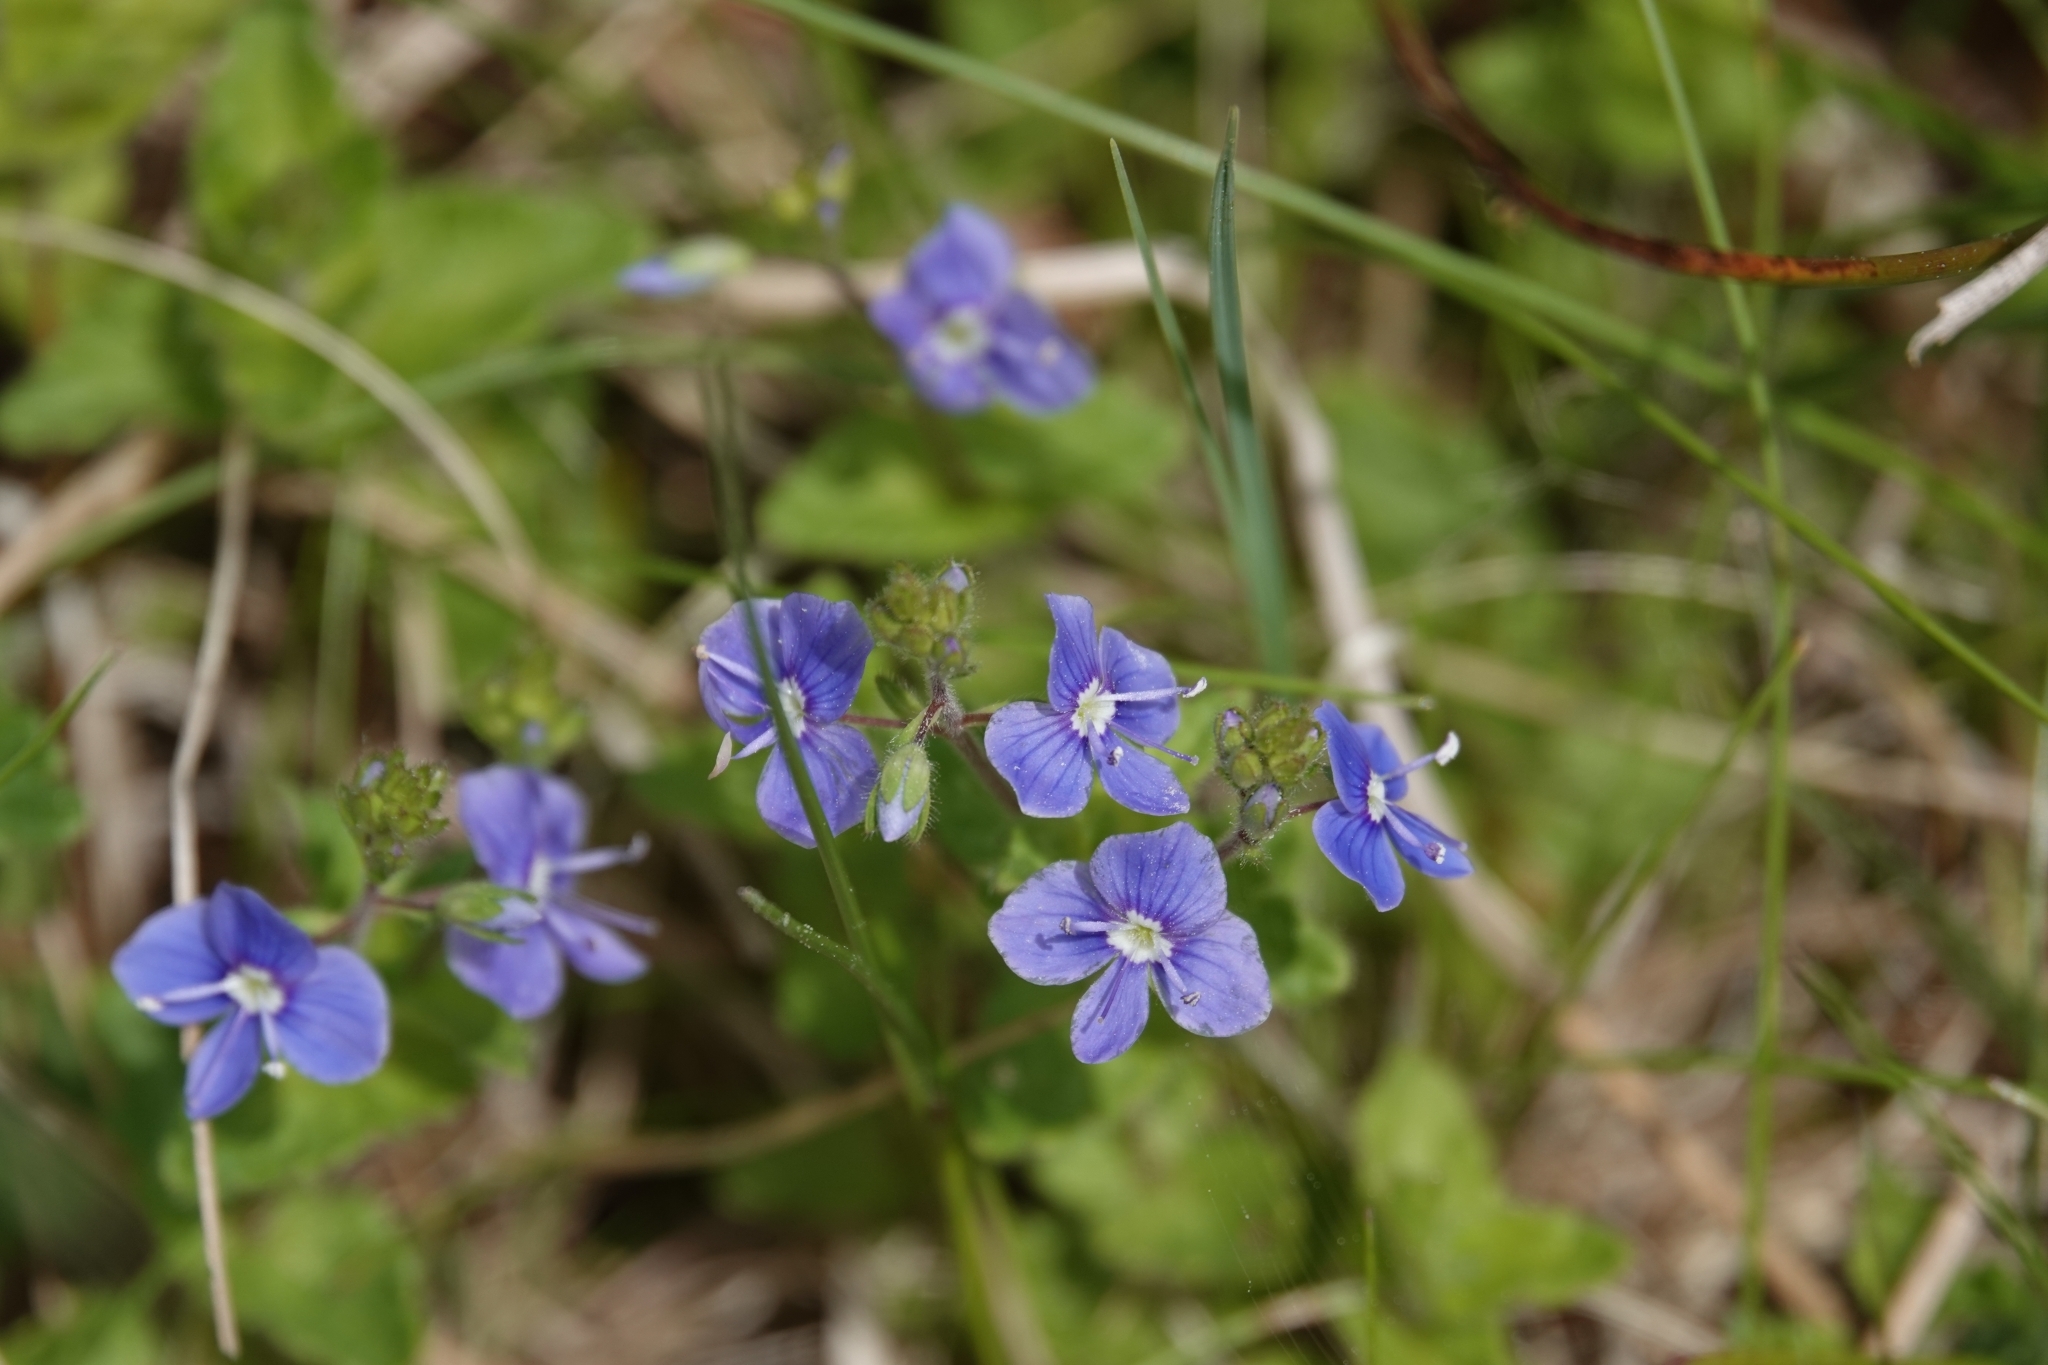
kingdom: Plantae
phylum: Tracheophyta
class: Magnoliopsida
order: Lamiales
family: Plantaginaceae
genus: Veronica
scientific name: Veronica chamaedrys
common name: Germander speedwell
